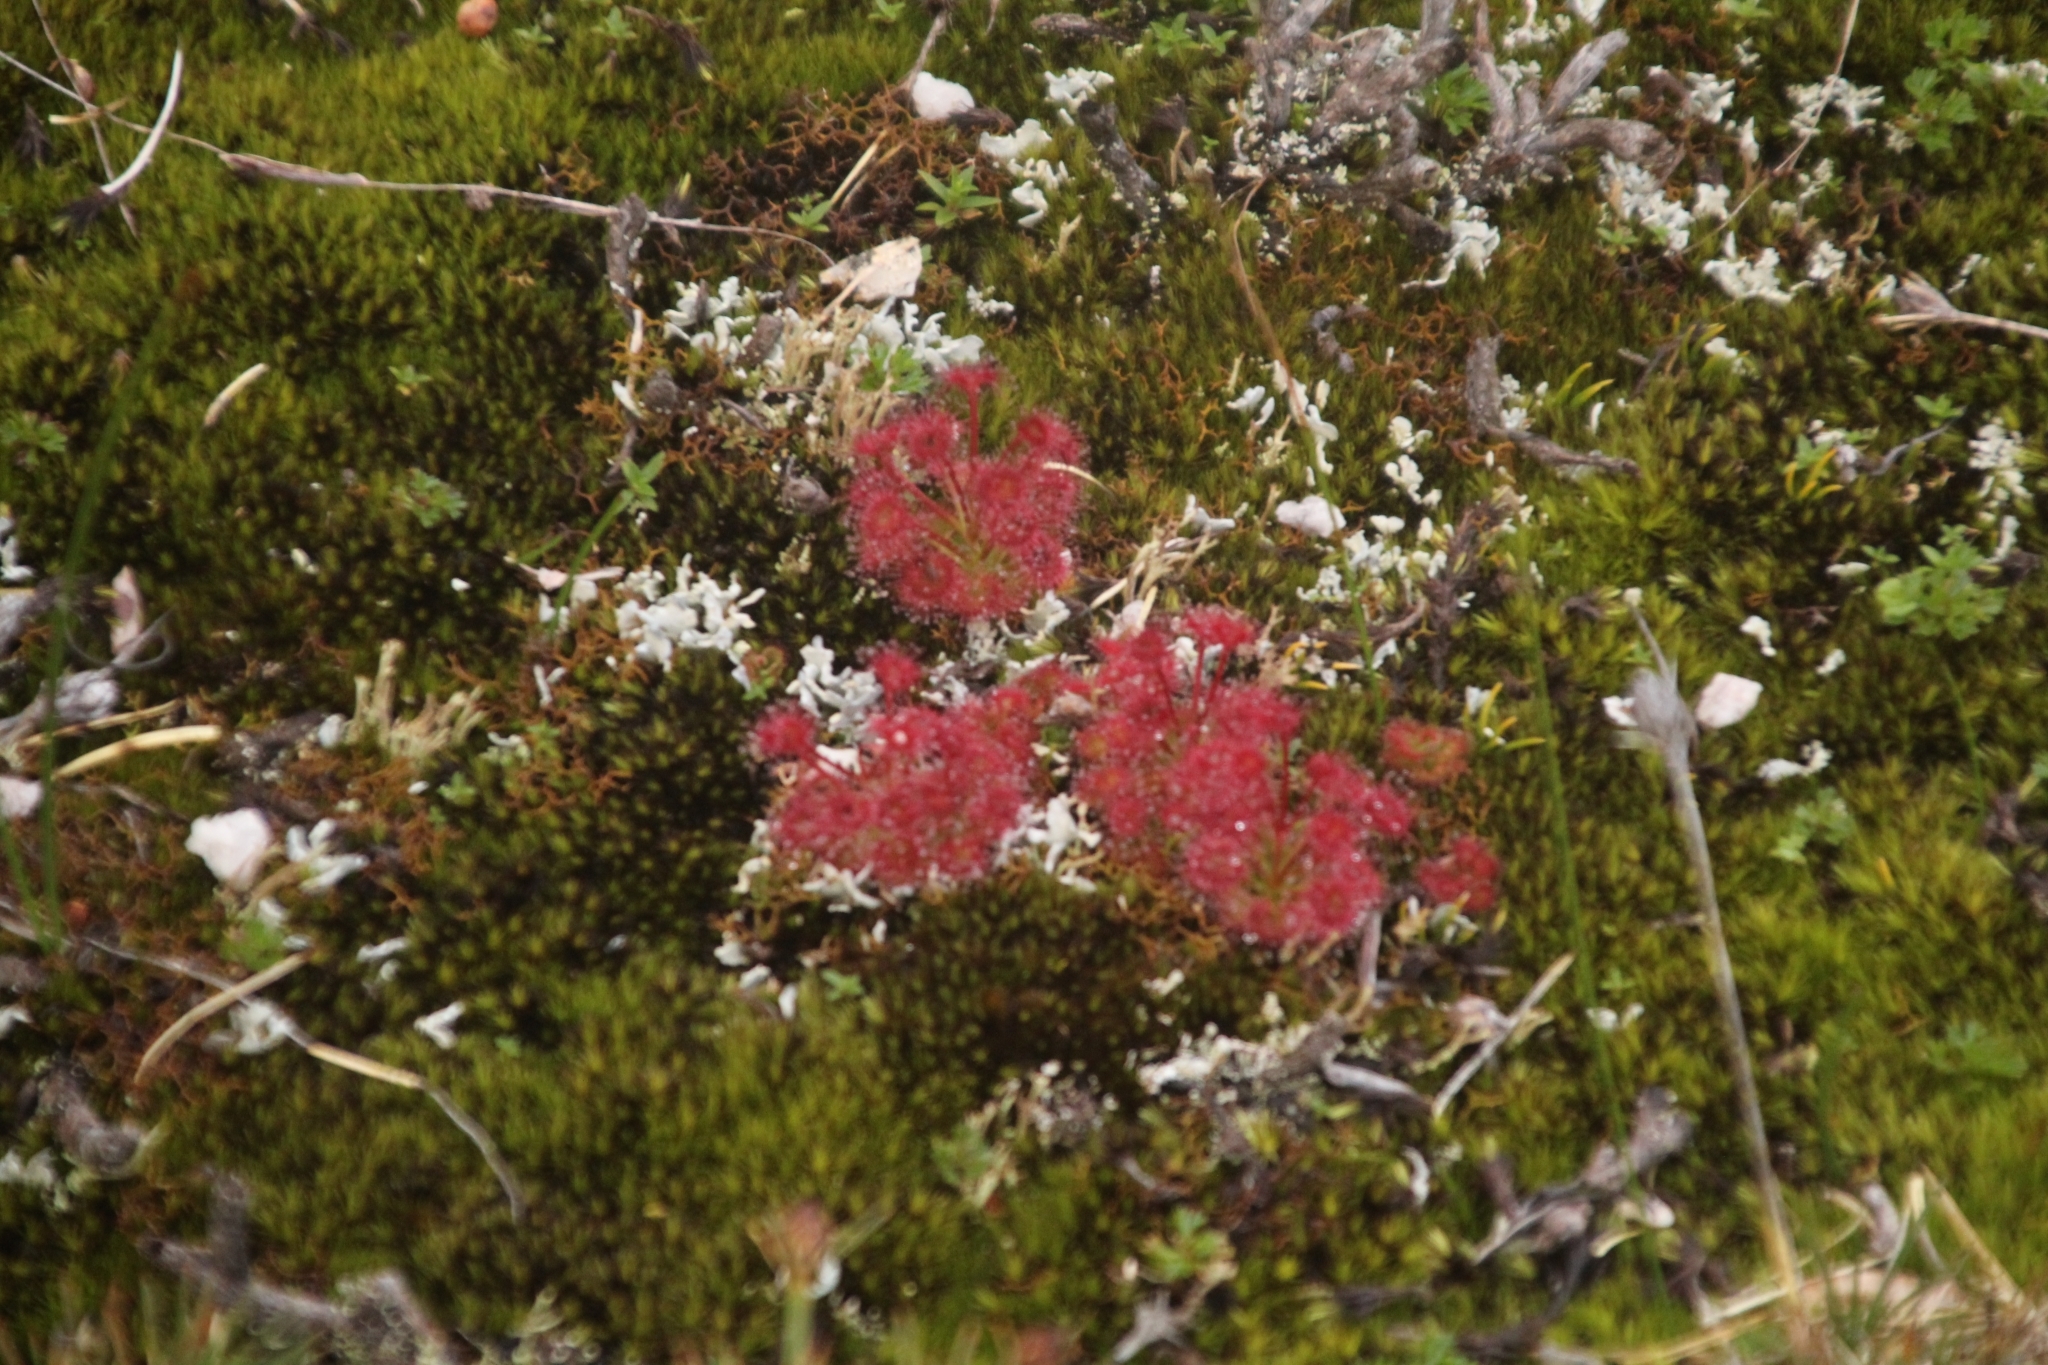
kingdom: Plantae
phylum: Tracheophyta
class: Magnoliopsida
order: Caryophyllales
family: Droseraceae
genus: Drosera
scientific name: Drosera stolonifera
